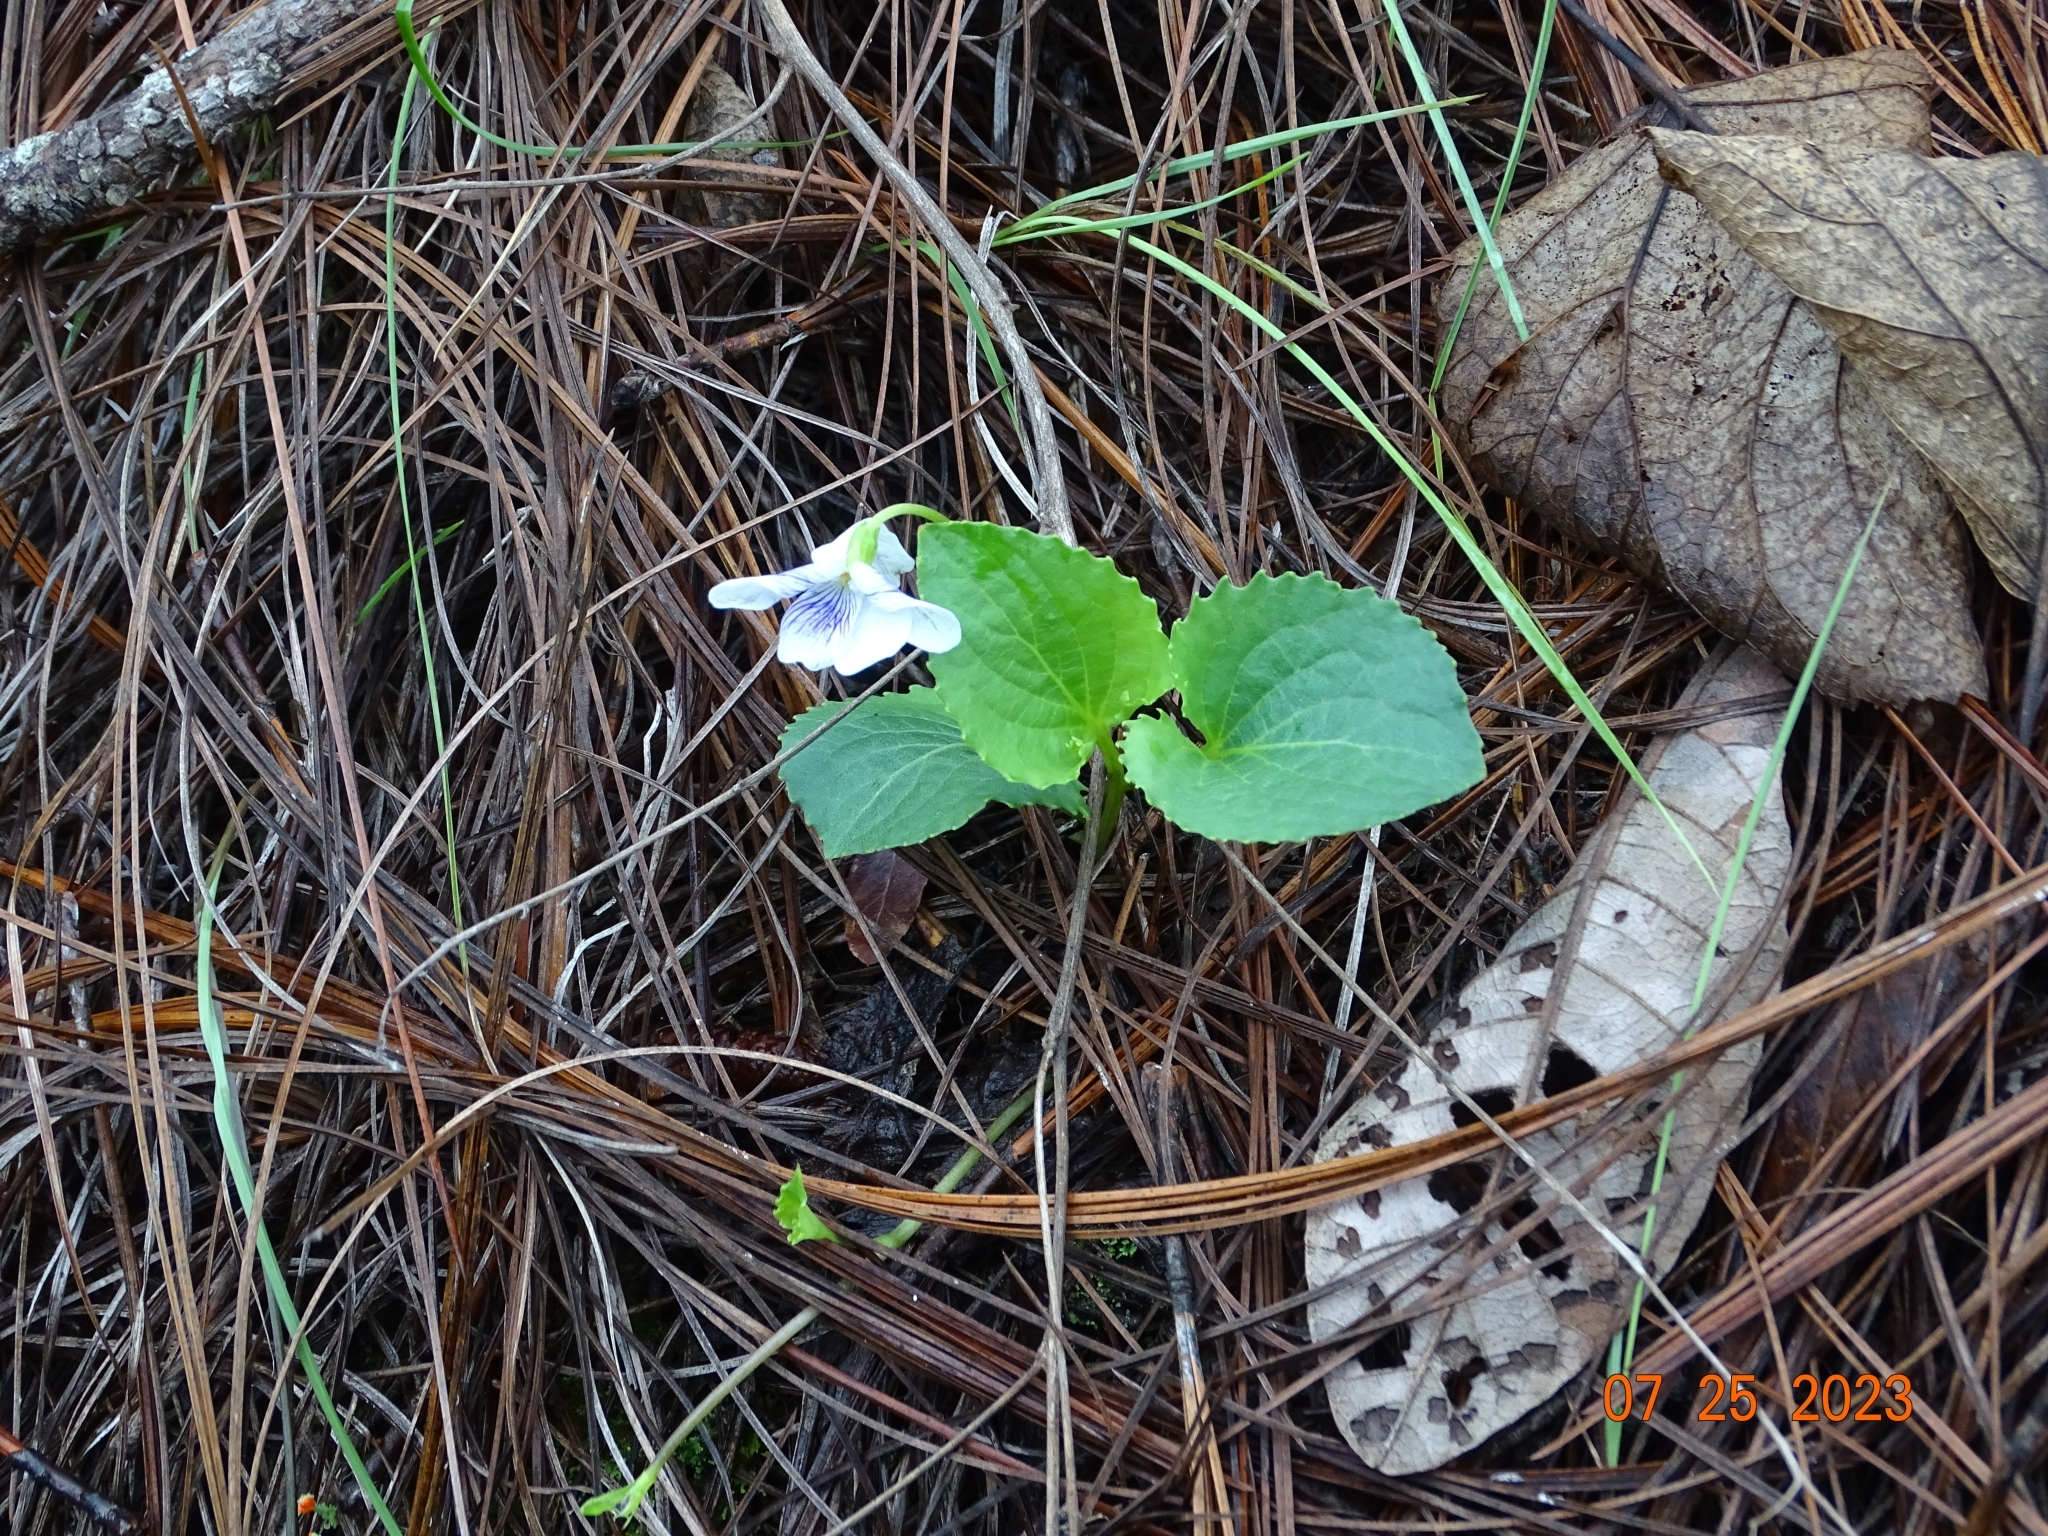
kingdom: Plantae
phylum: Tracheophyta
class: Magnoliopsida
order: Malpighiales
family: Violaceae
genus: Viola
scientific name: Viola hookeriana
